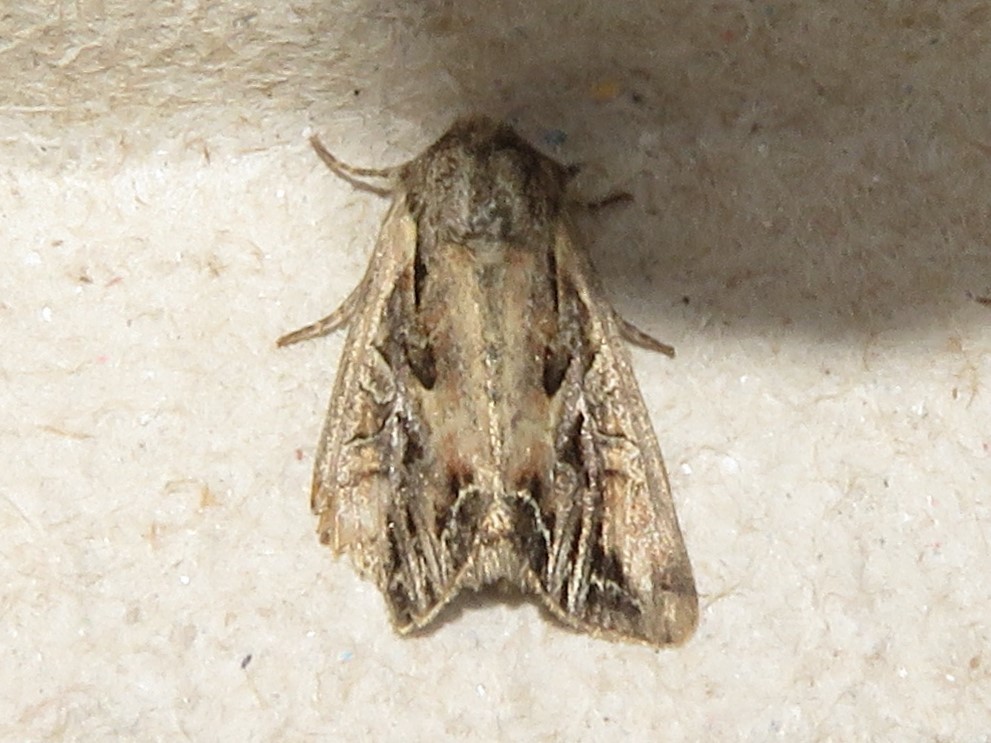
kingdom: Animalia
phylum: Arthropoda
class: Insecta
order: Lepidoptera
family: Noctuidae
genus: Lacanobia
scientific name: Lacanobia atlantica
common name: Atlantic arches moth
